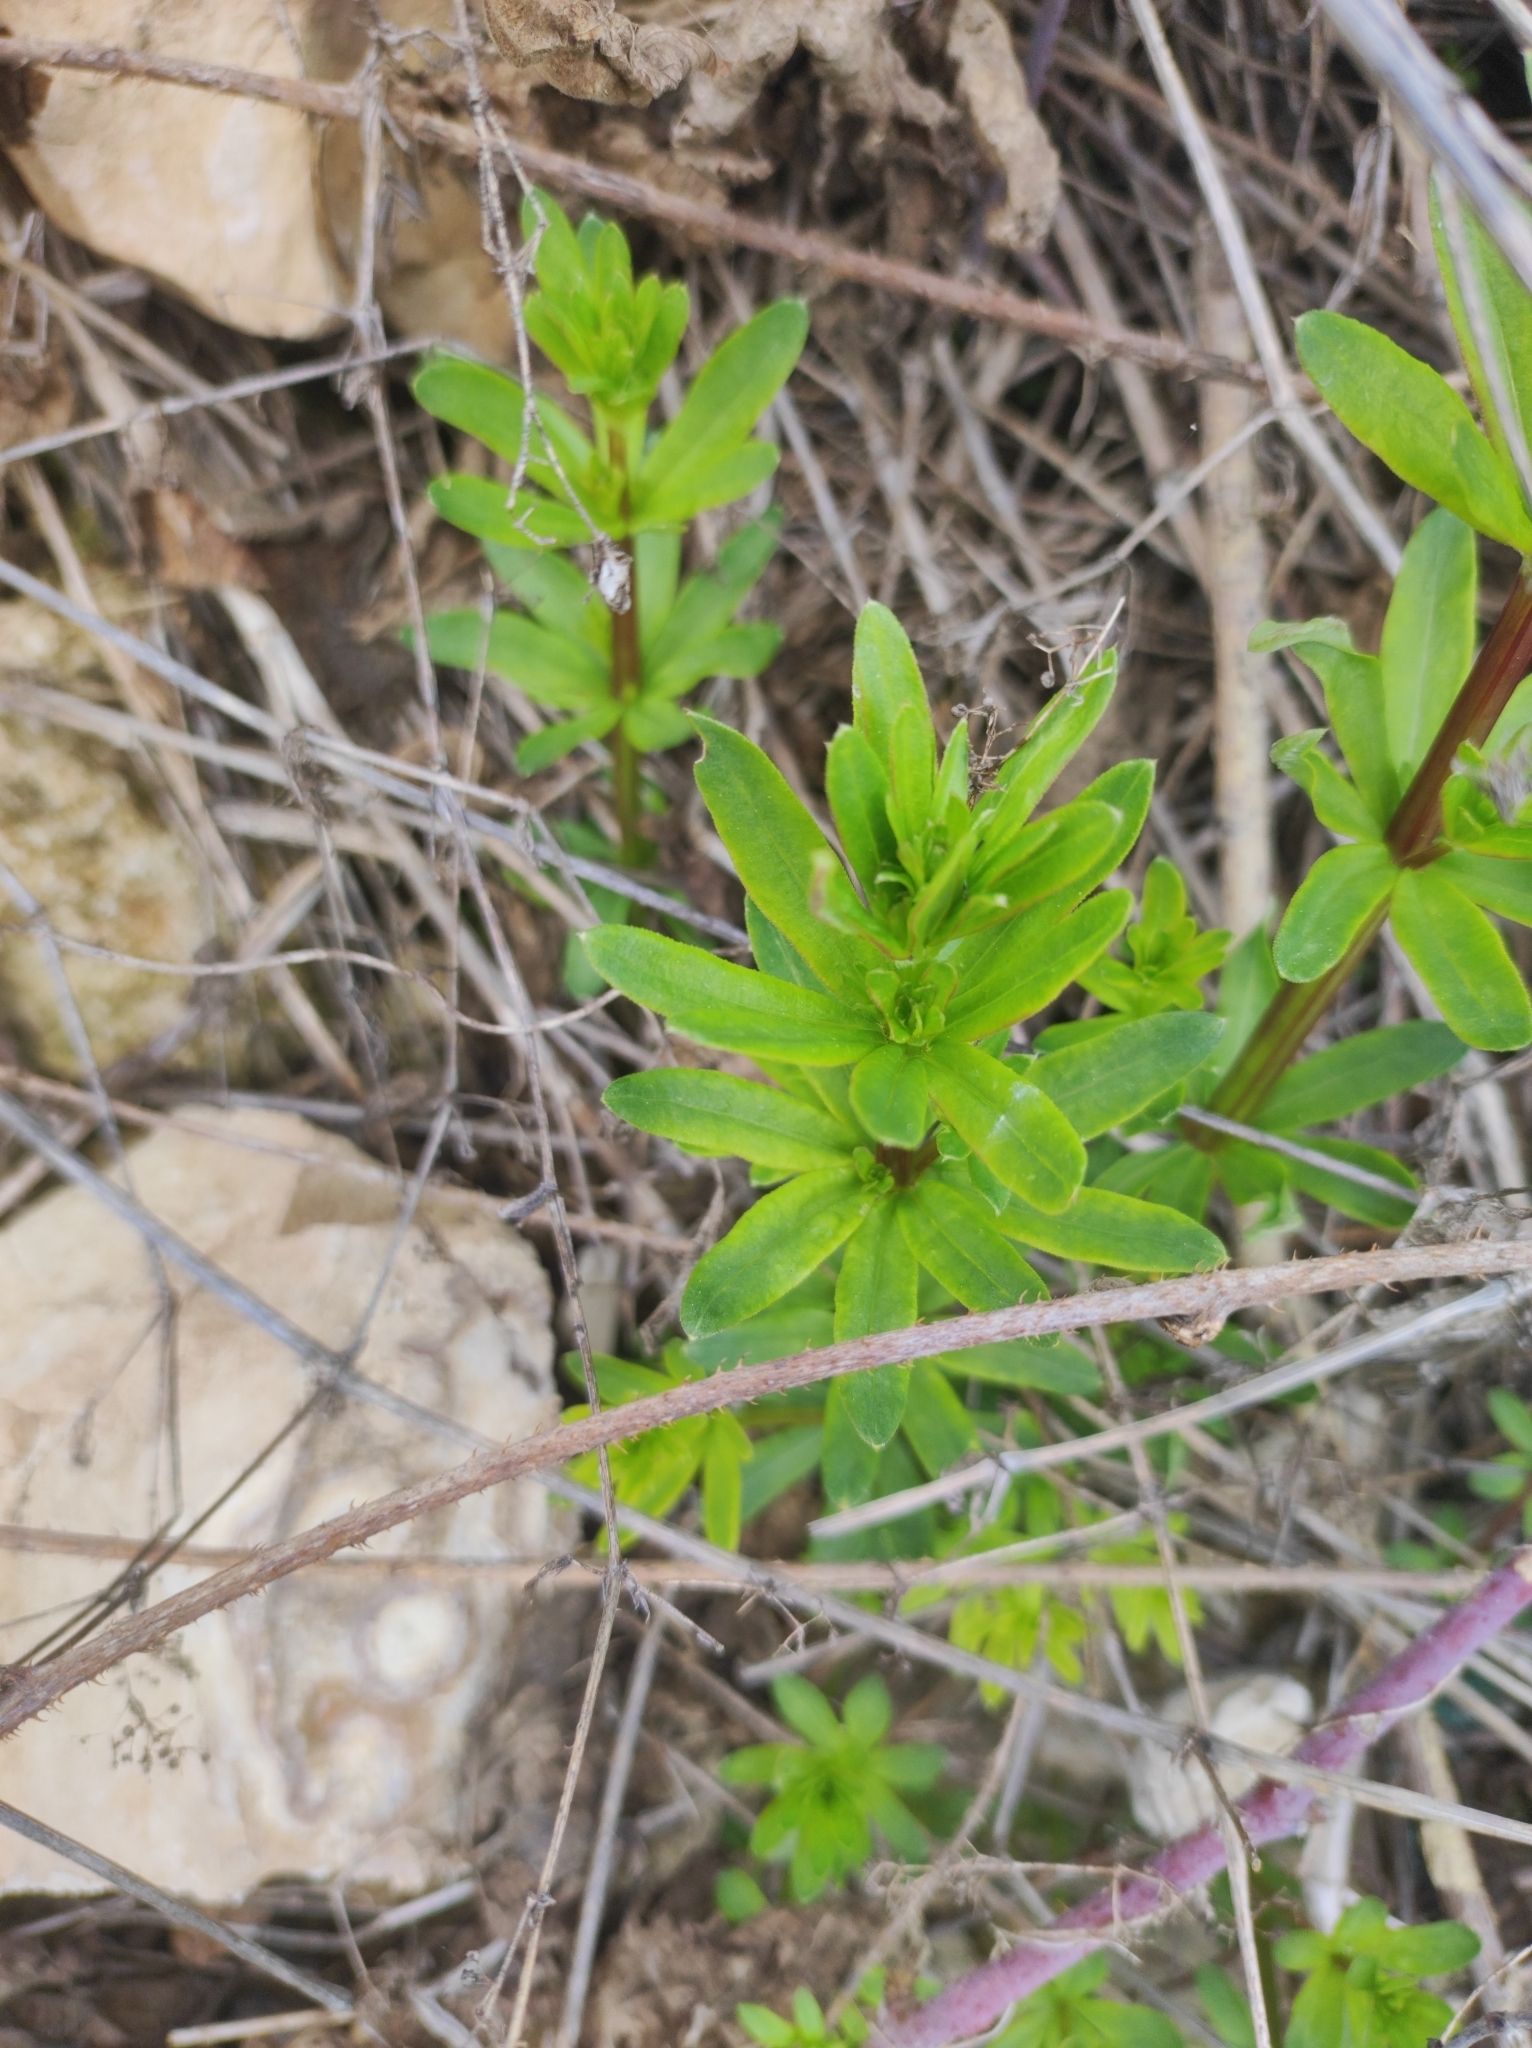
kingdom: Plantae
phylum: Tracheophyta
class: Magnoliopsida
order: Gentianales
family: Rubiaceae
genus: Galium
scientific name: Galium mollugo
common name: Hedge bedstraw
